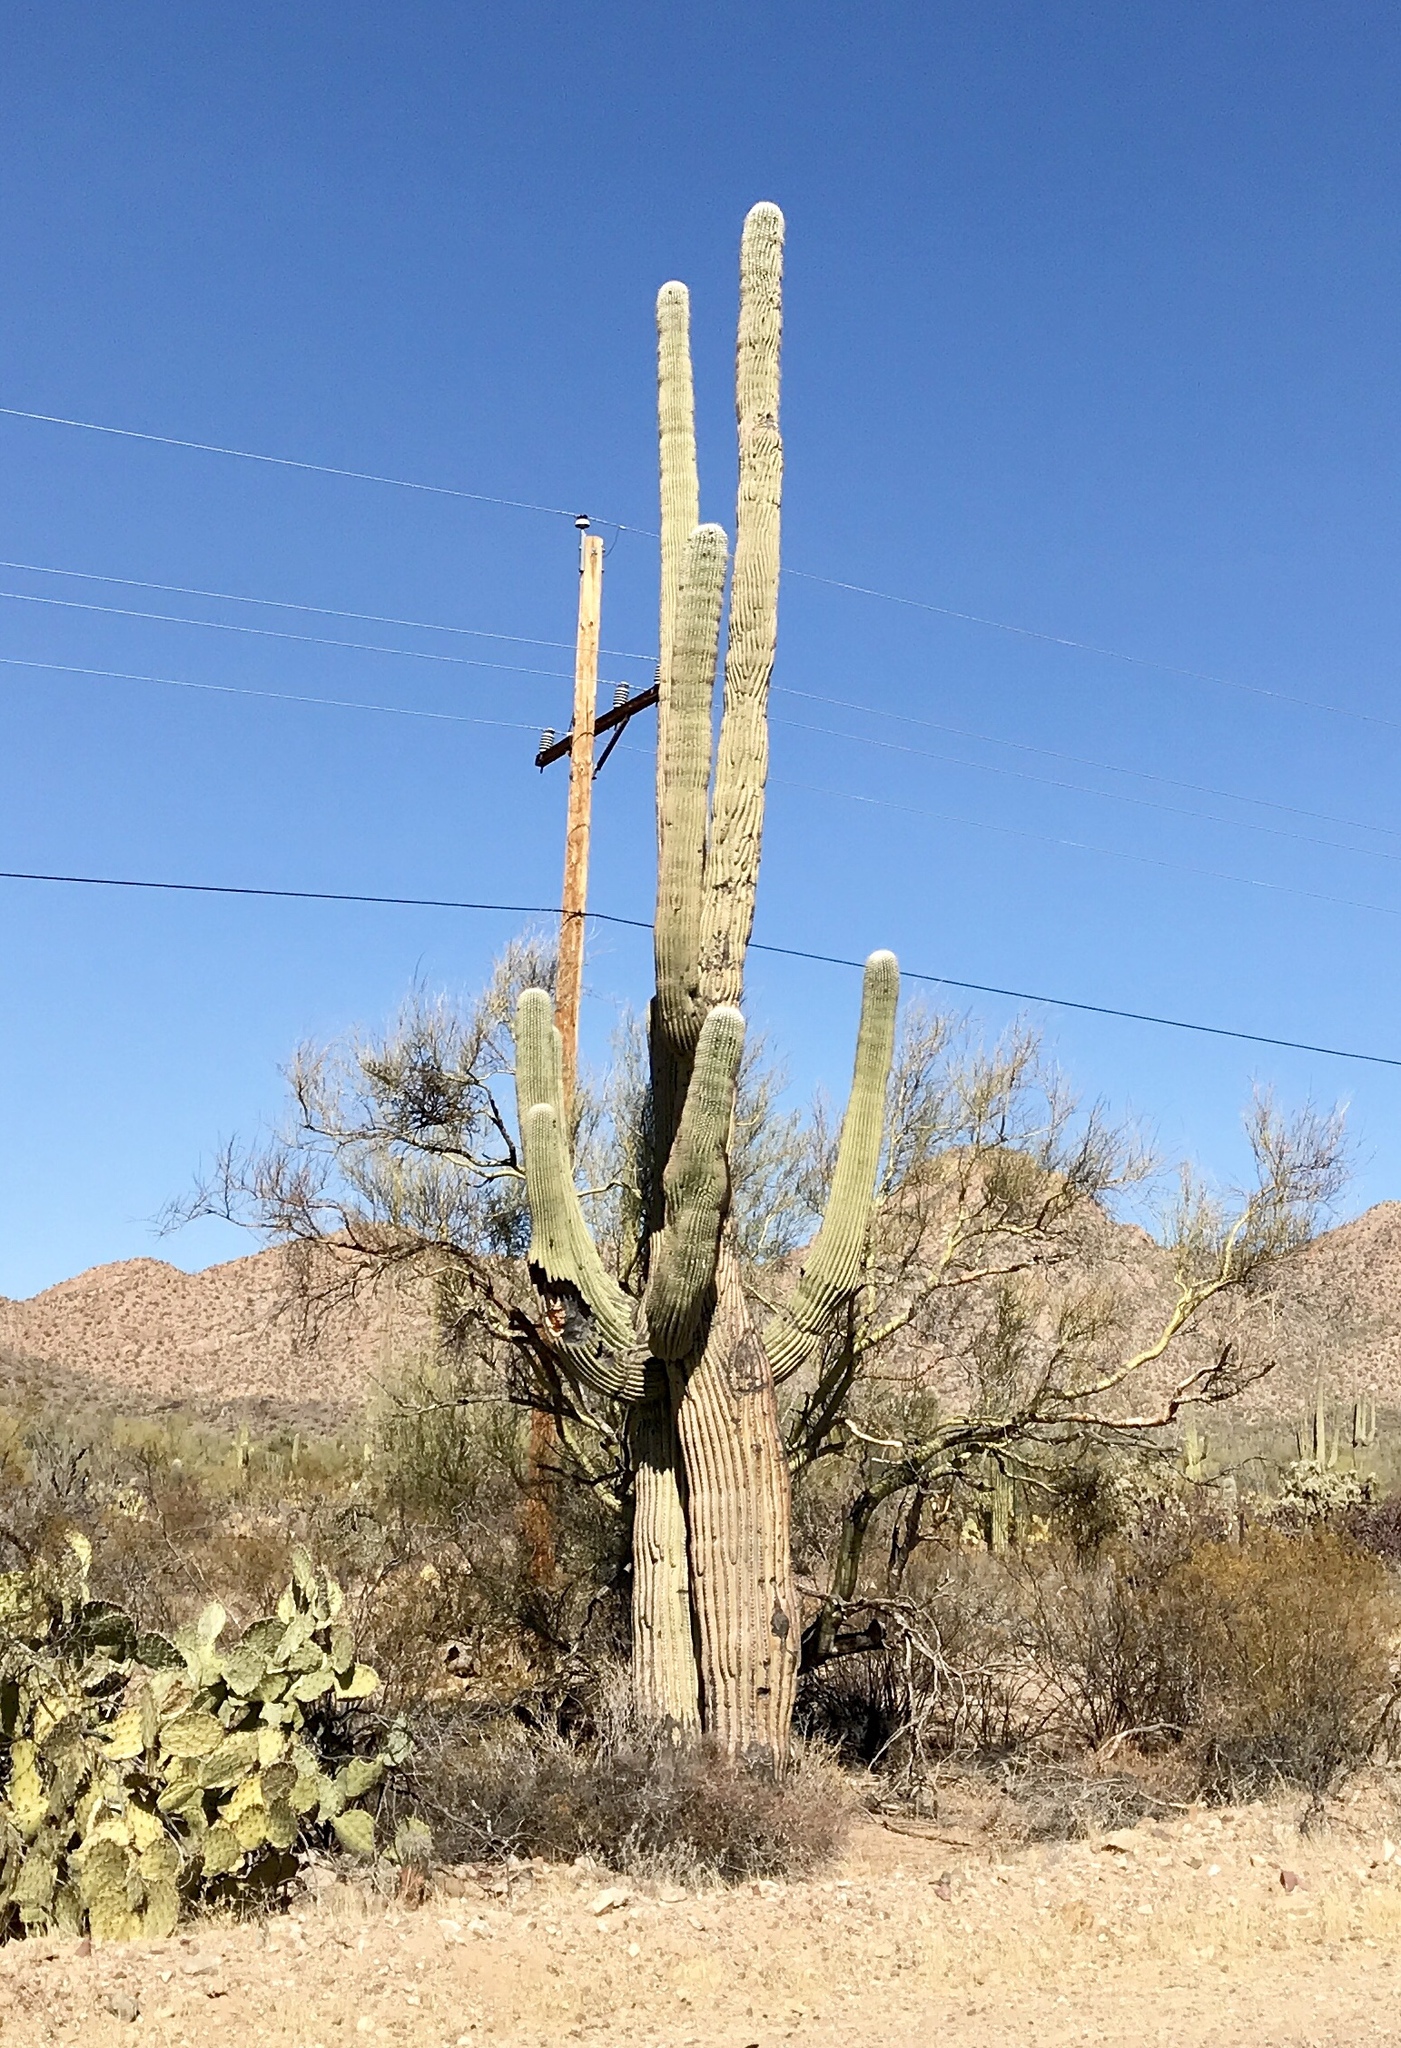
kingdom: Plantae
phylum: Tracheophyta
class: Magnoliopsida
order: Caryophyllales
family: Cactaceae
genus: Carnegiea
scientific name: Carnegiea gigantea
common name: Saguaro
